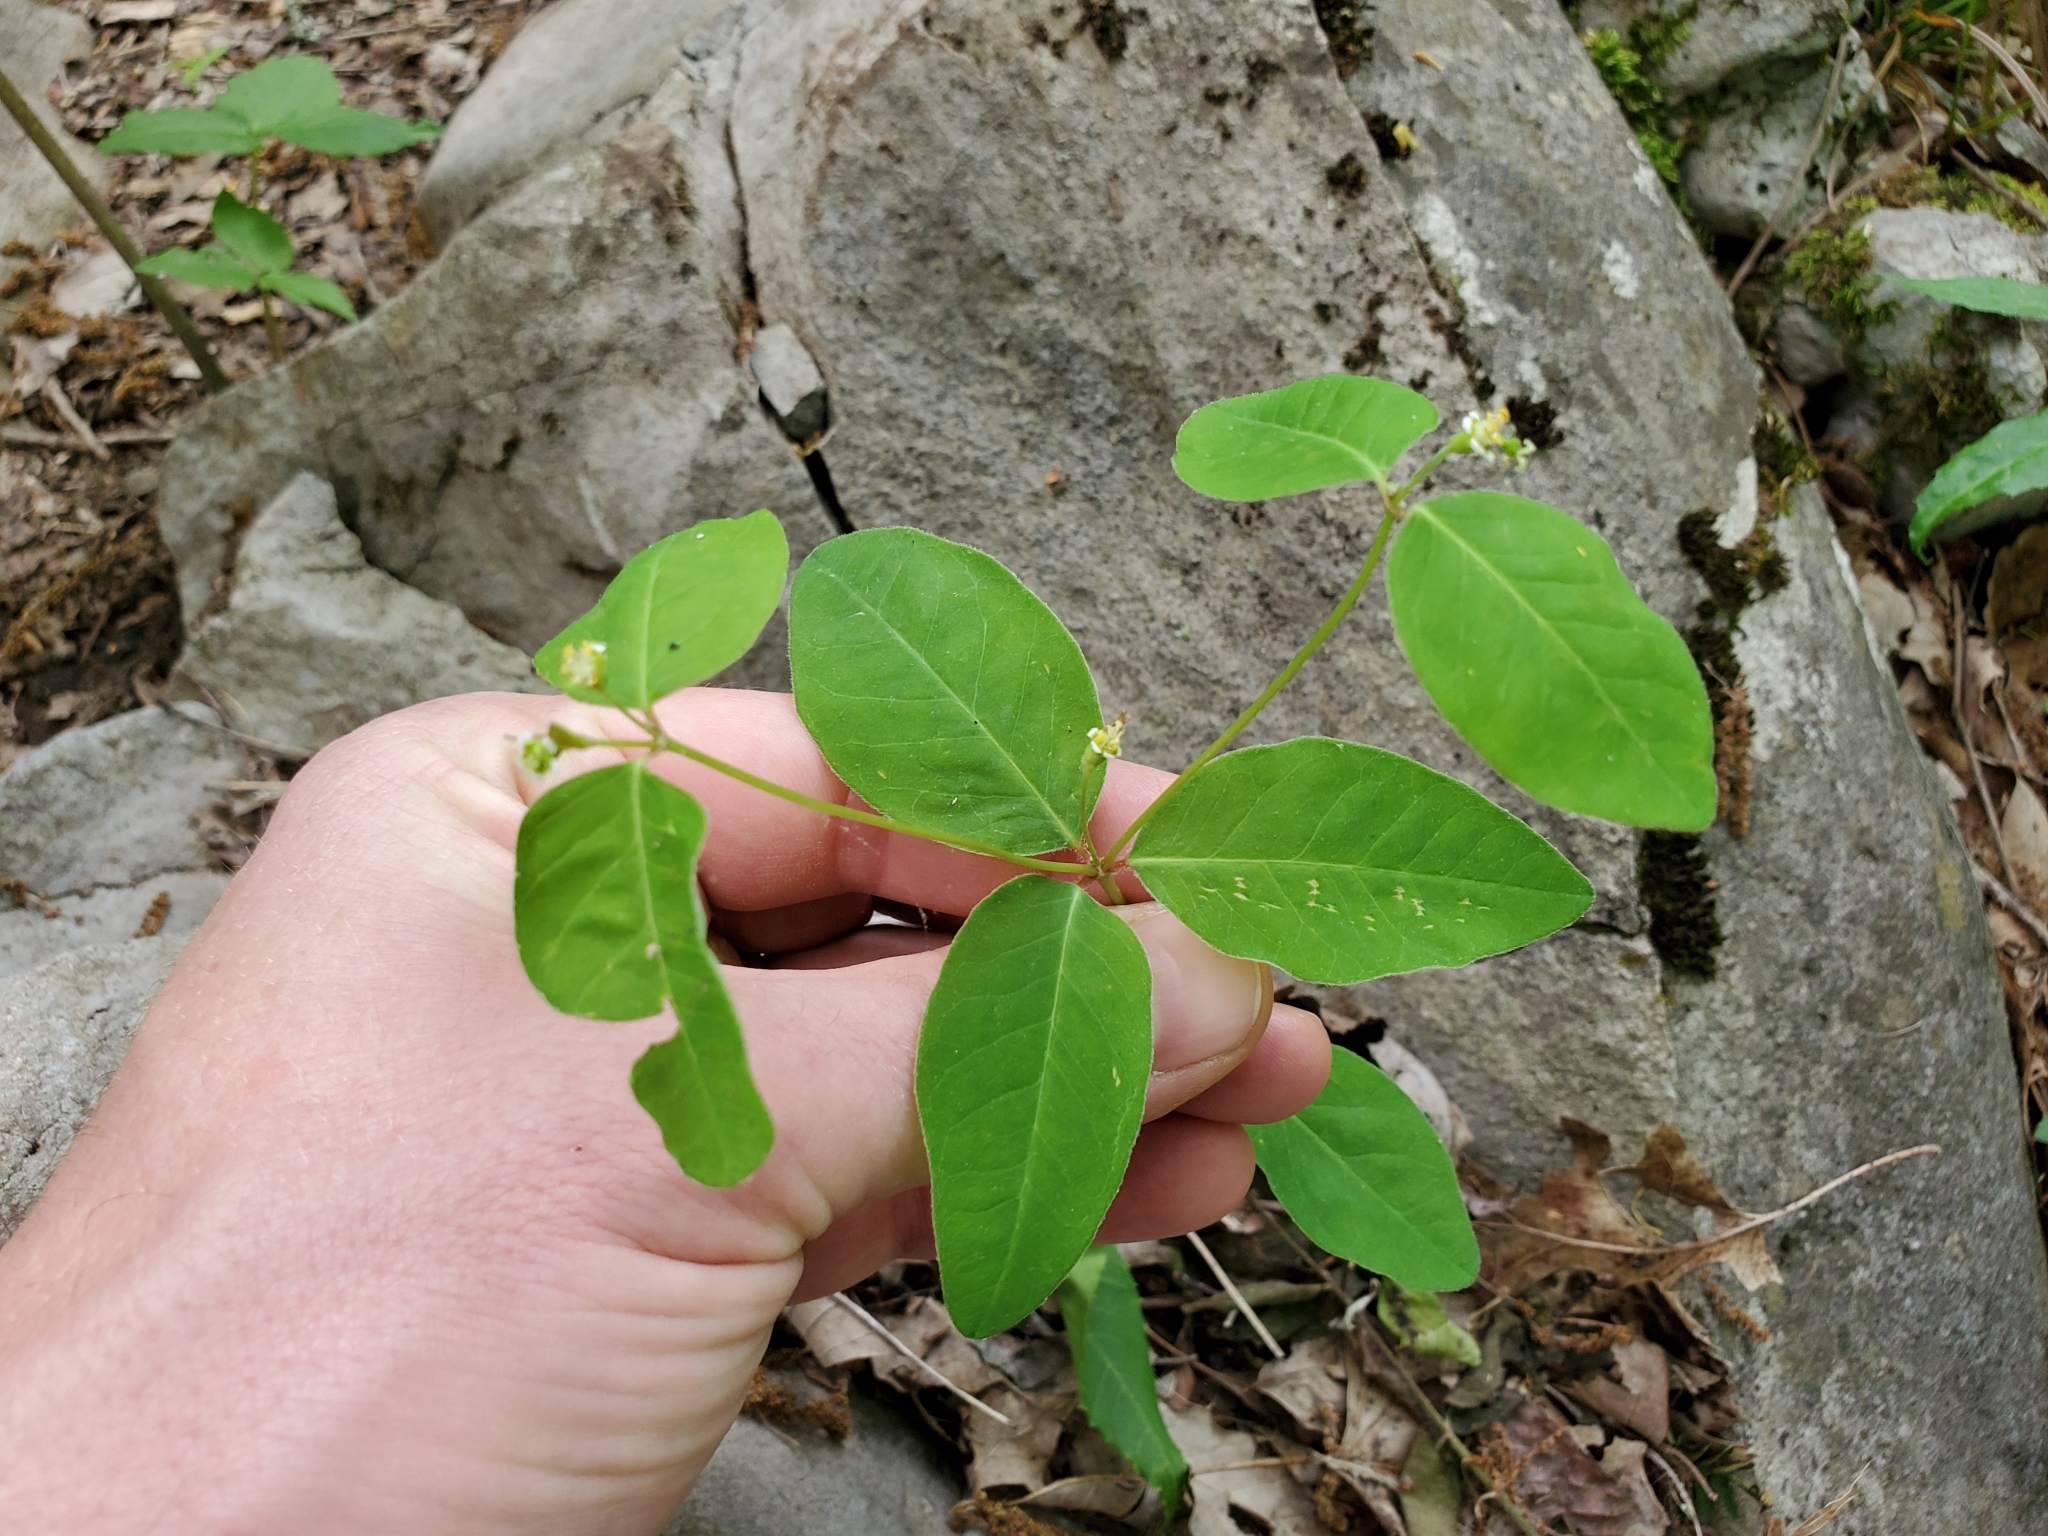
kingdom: Plantae
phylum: Tracheophyta
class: Magnoliopsida
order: Malpighiales
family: Euphorbiaceae
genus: Euphorbia
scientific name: Euphorbia mercurialina
